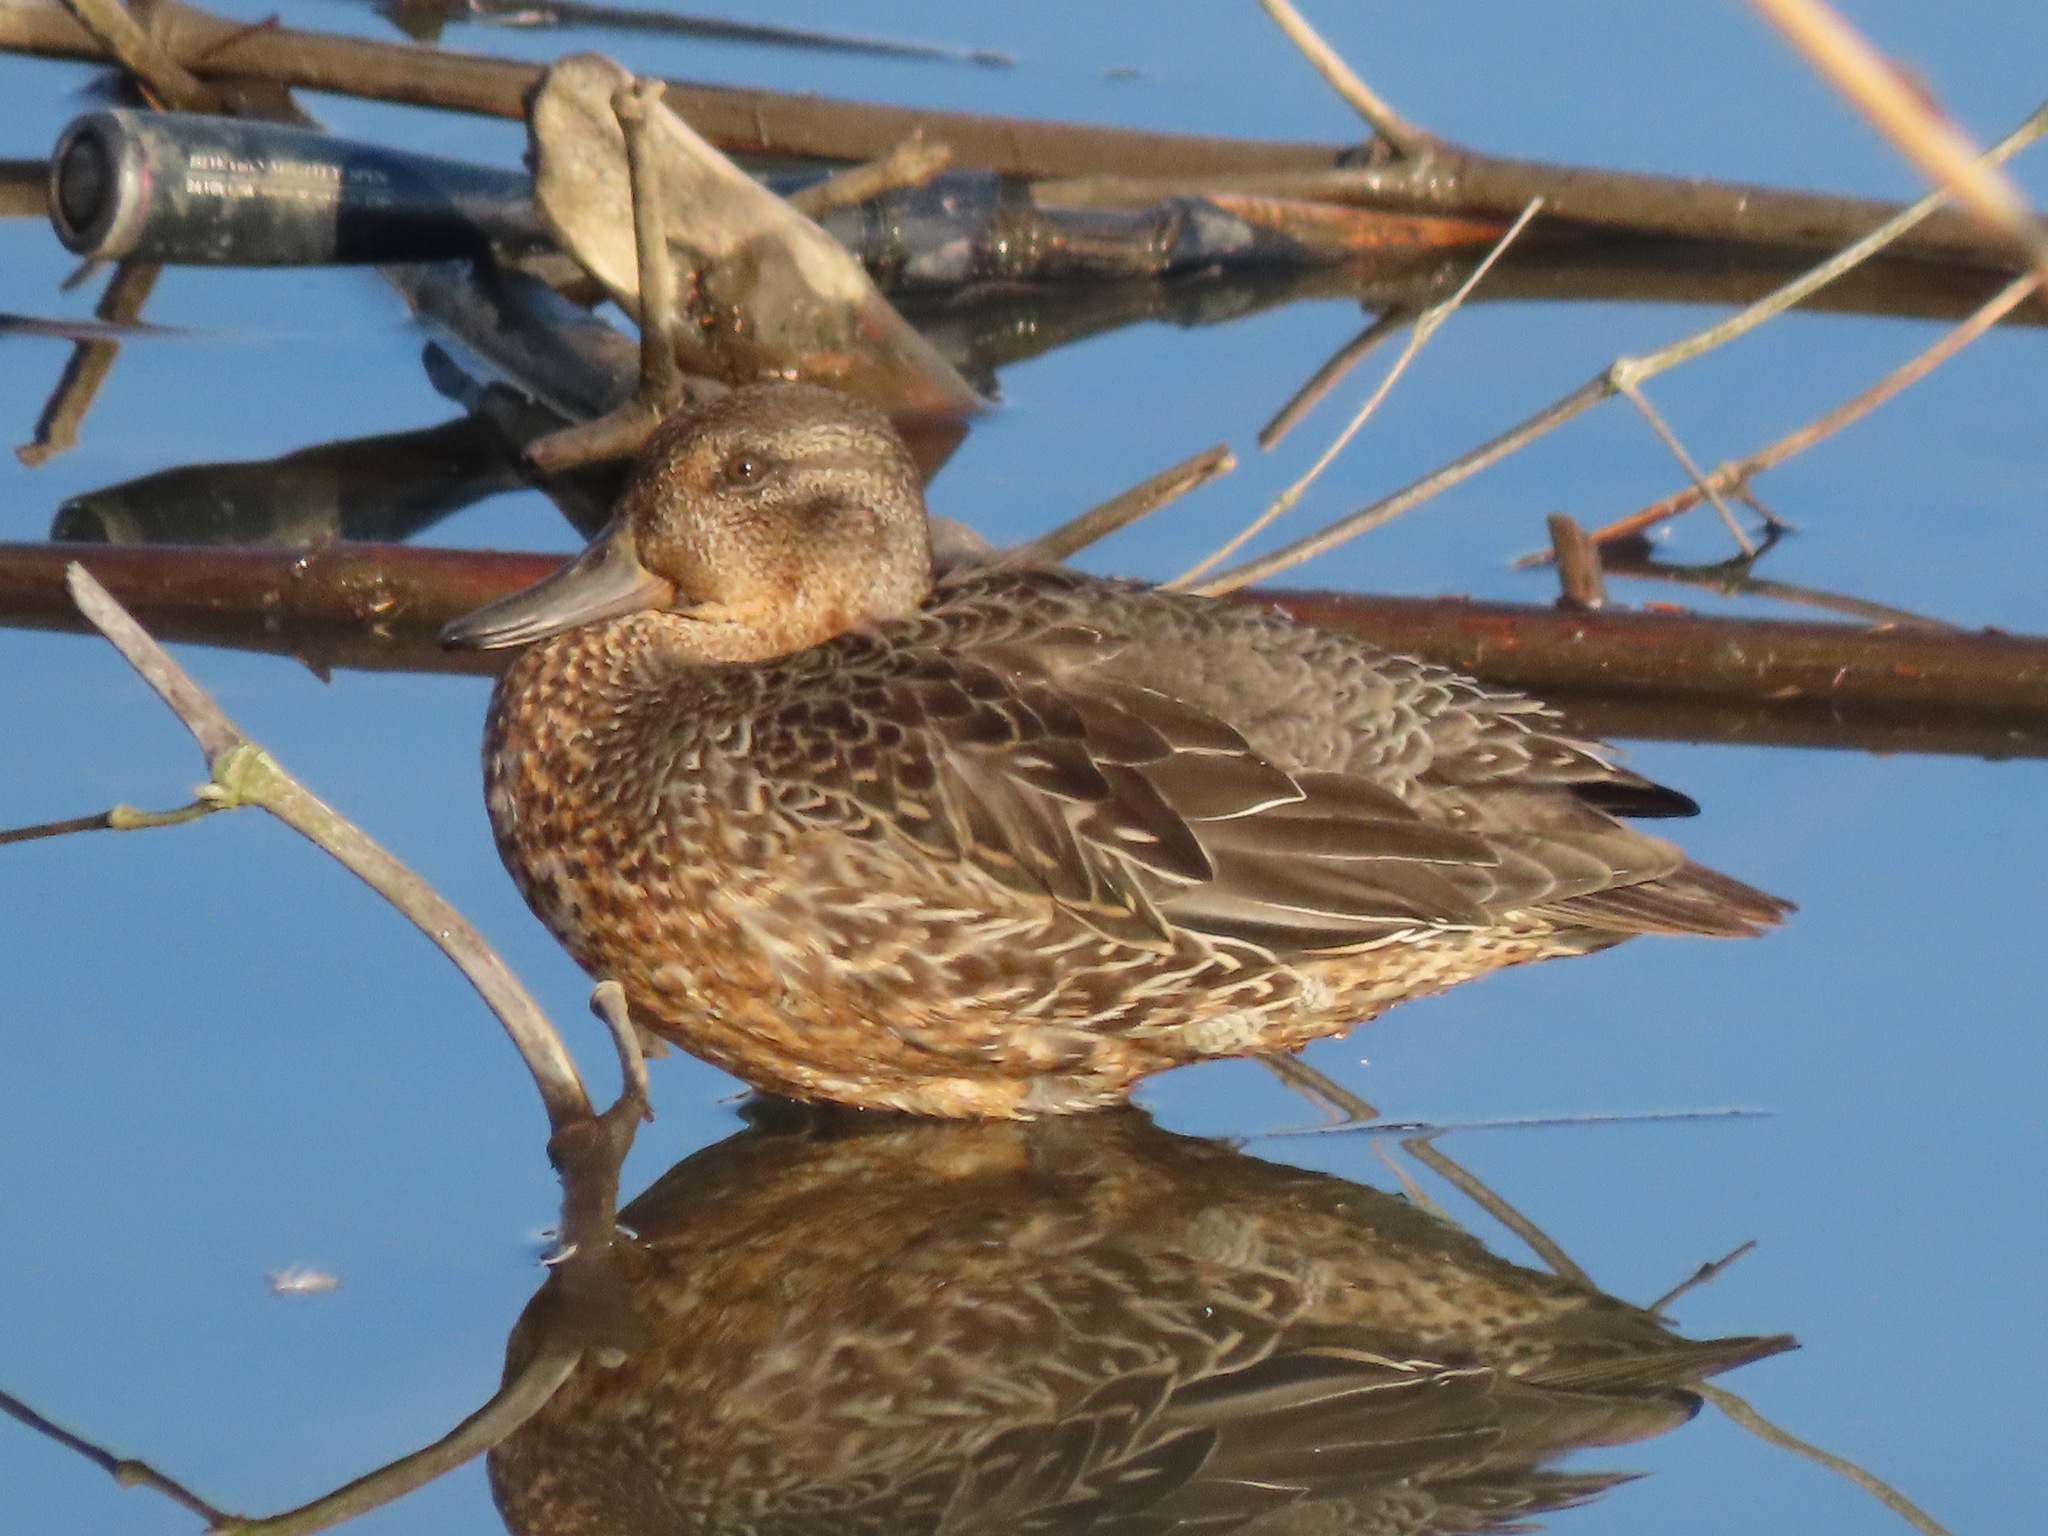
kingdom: Animalia
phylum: Chordata
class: Aves
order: Anseriformes
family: Anatidae
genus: Anas
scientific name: Anas crecca
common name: Eurasian teal
